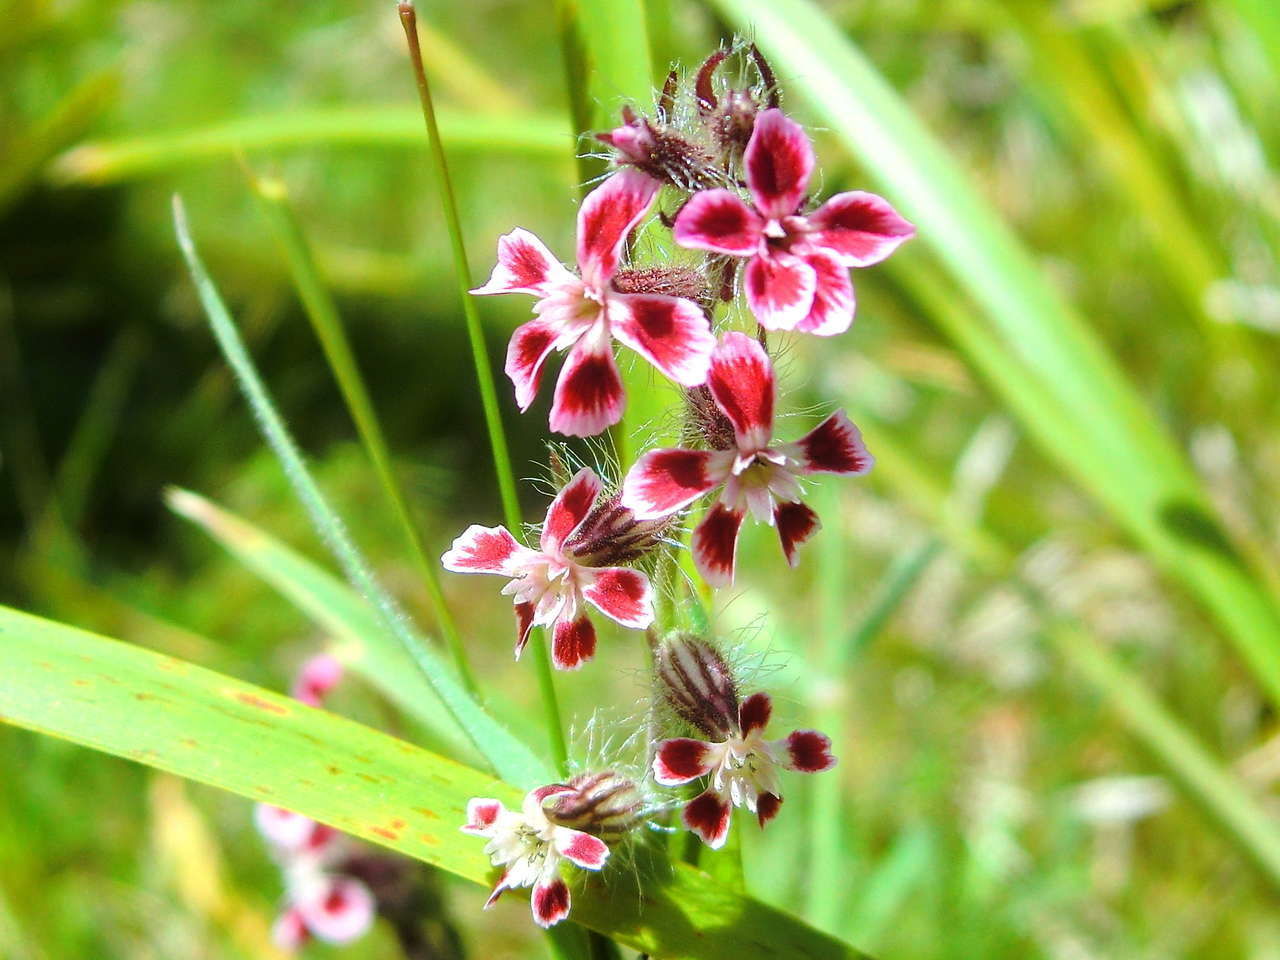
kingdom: Plantae
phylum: Tracheophyta
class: Magnoliopsida
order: Caryophyllales
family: Caryophyllaceae
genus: Silene
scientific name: Silene gallica
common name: Small-flowered catchfly
